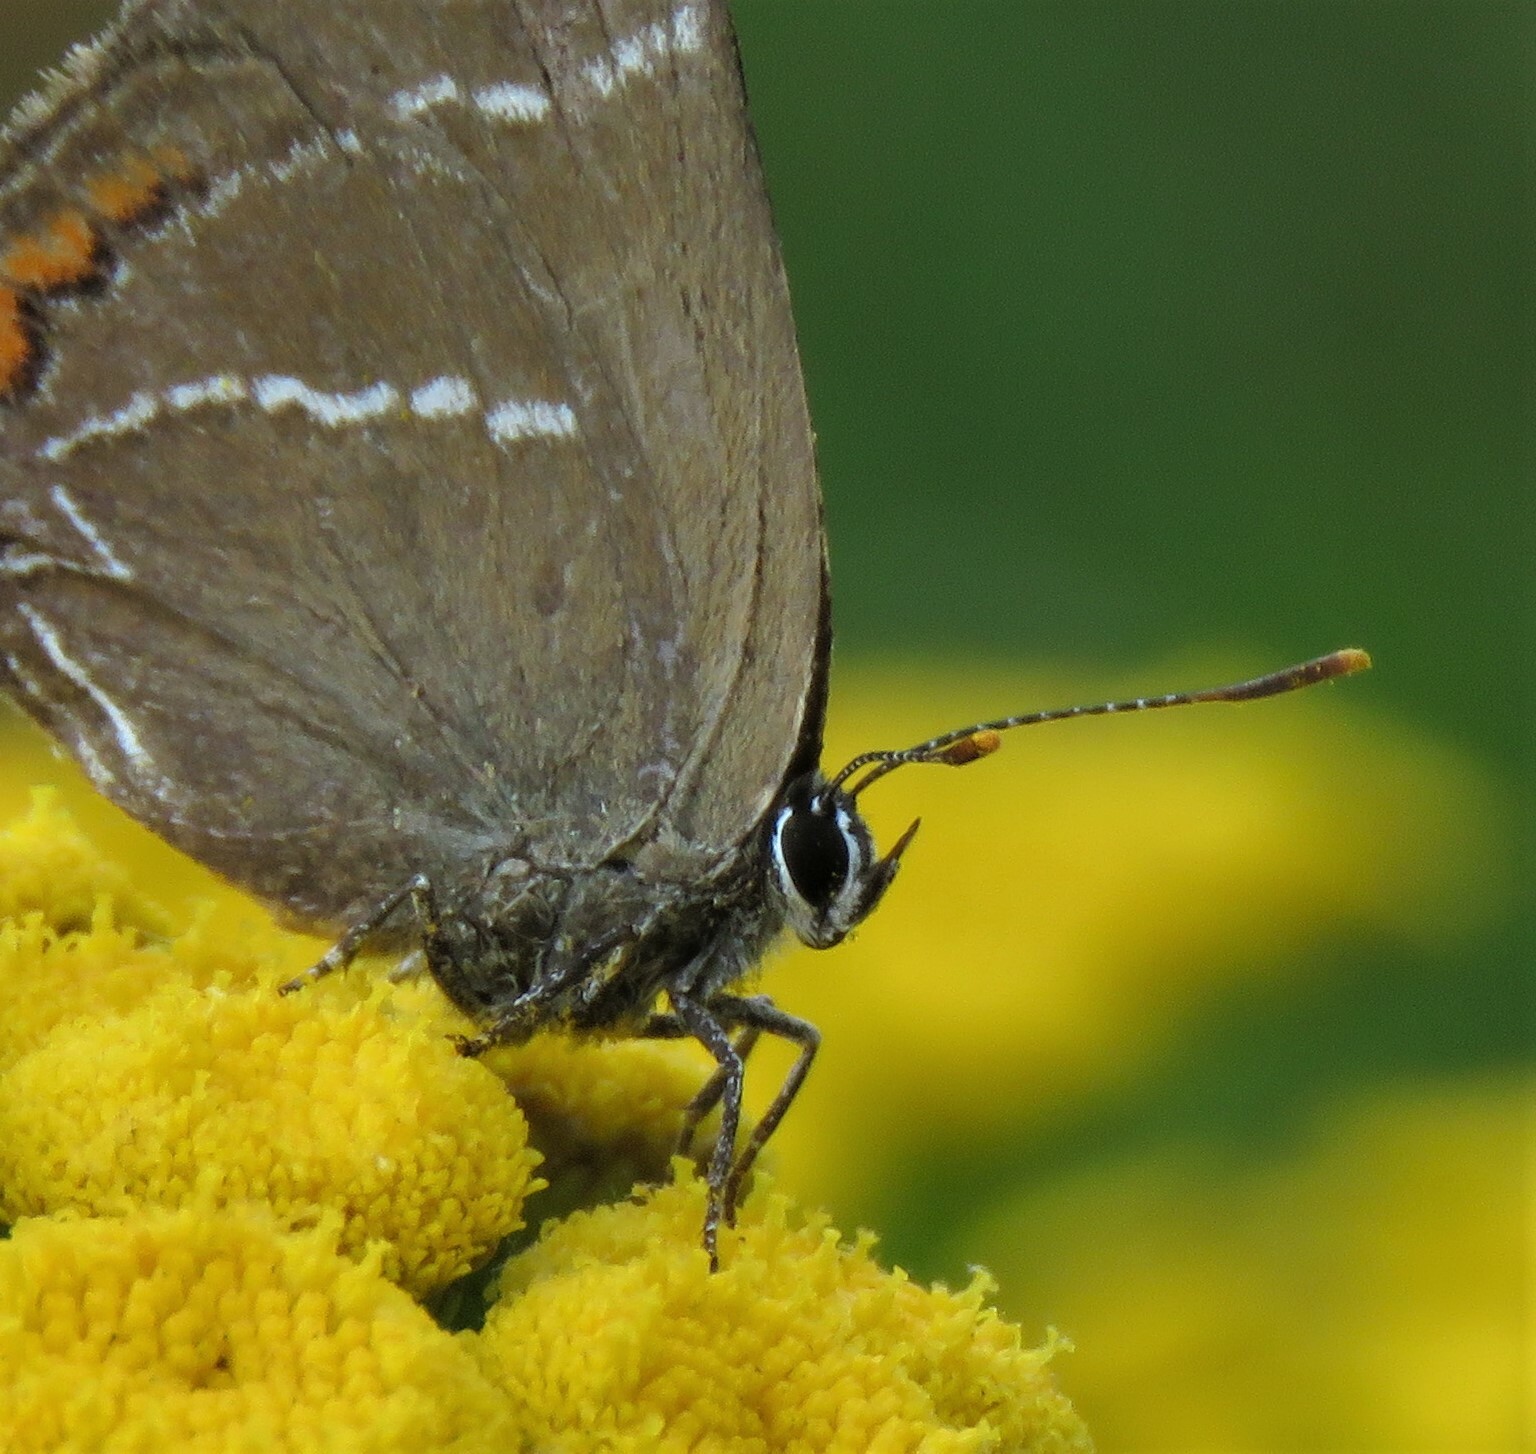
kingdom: Animalia
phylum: Arthropoda
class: Insecta
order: Lepidoptera
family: Lycaenidae
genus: Satyrium
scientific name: Satyrium w-album
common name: White-letter hairstreak
